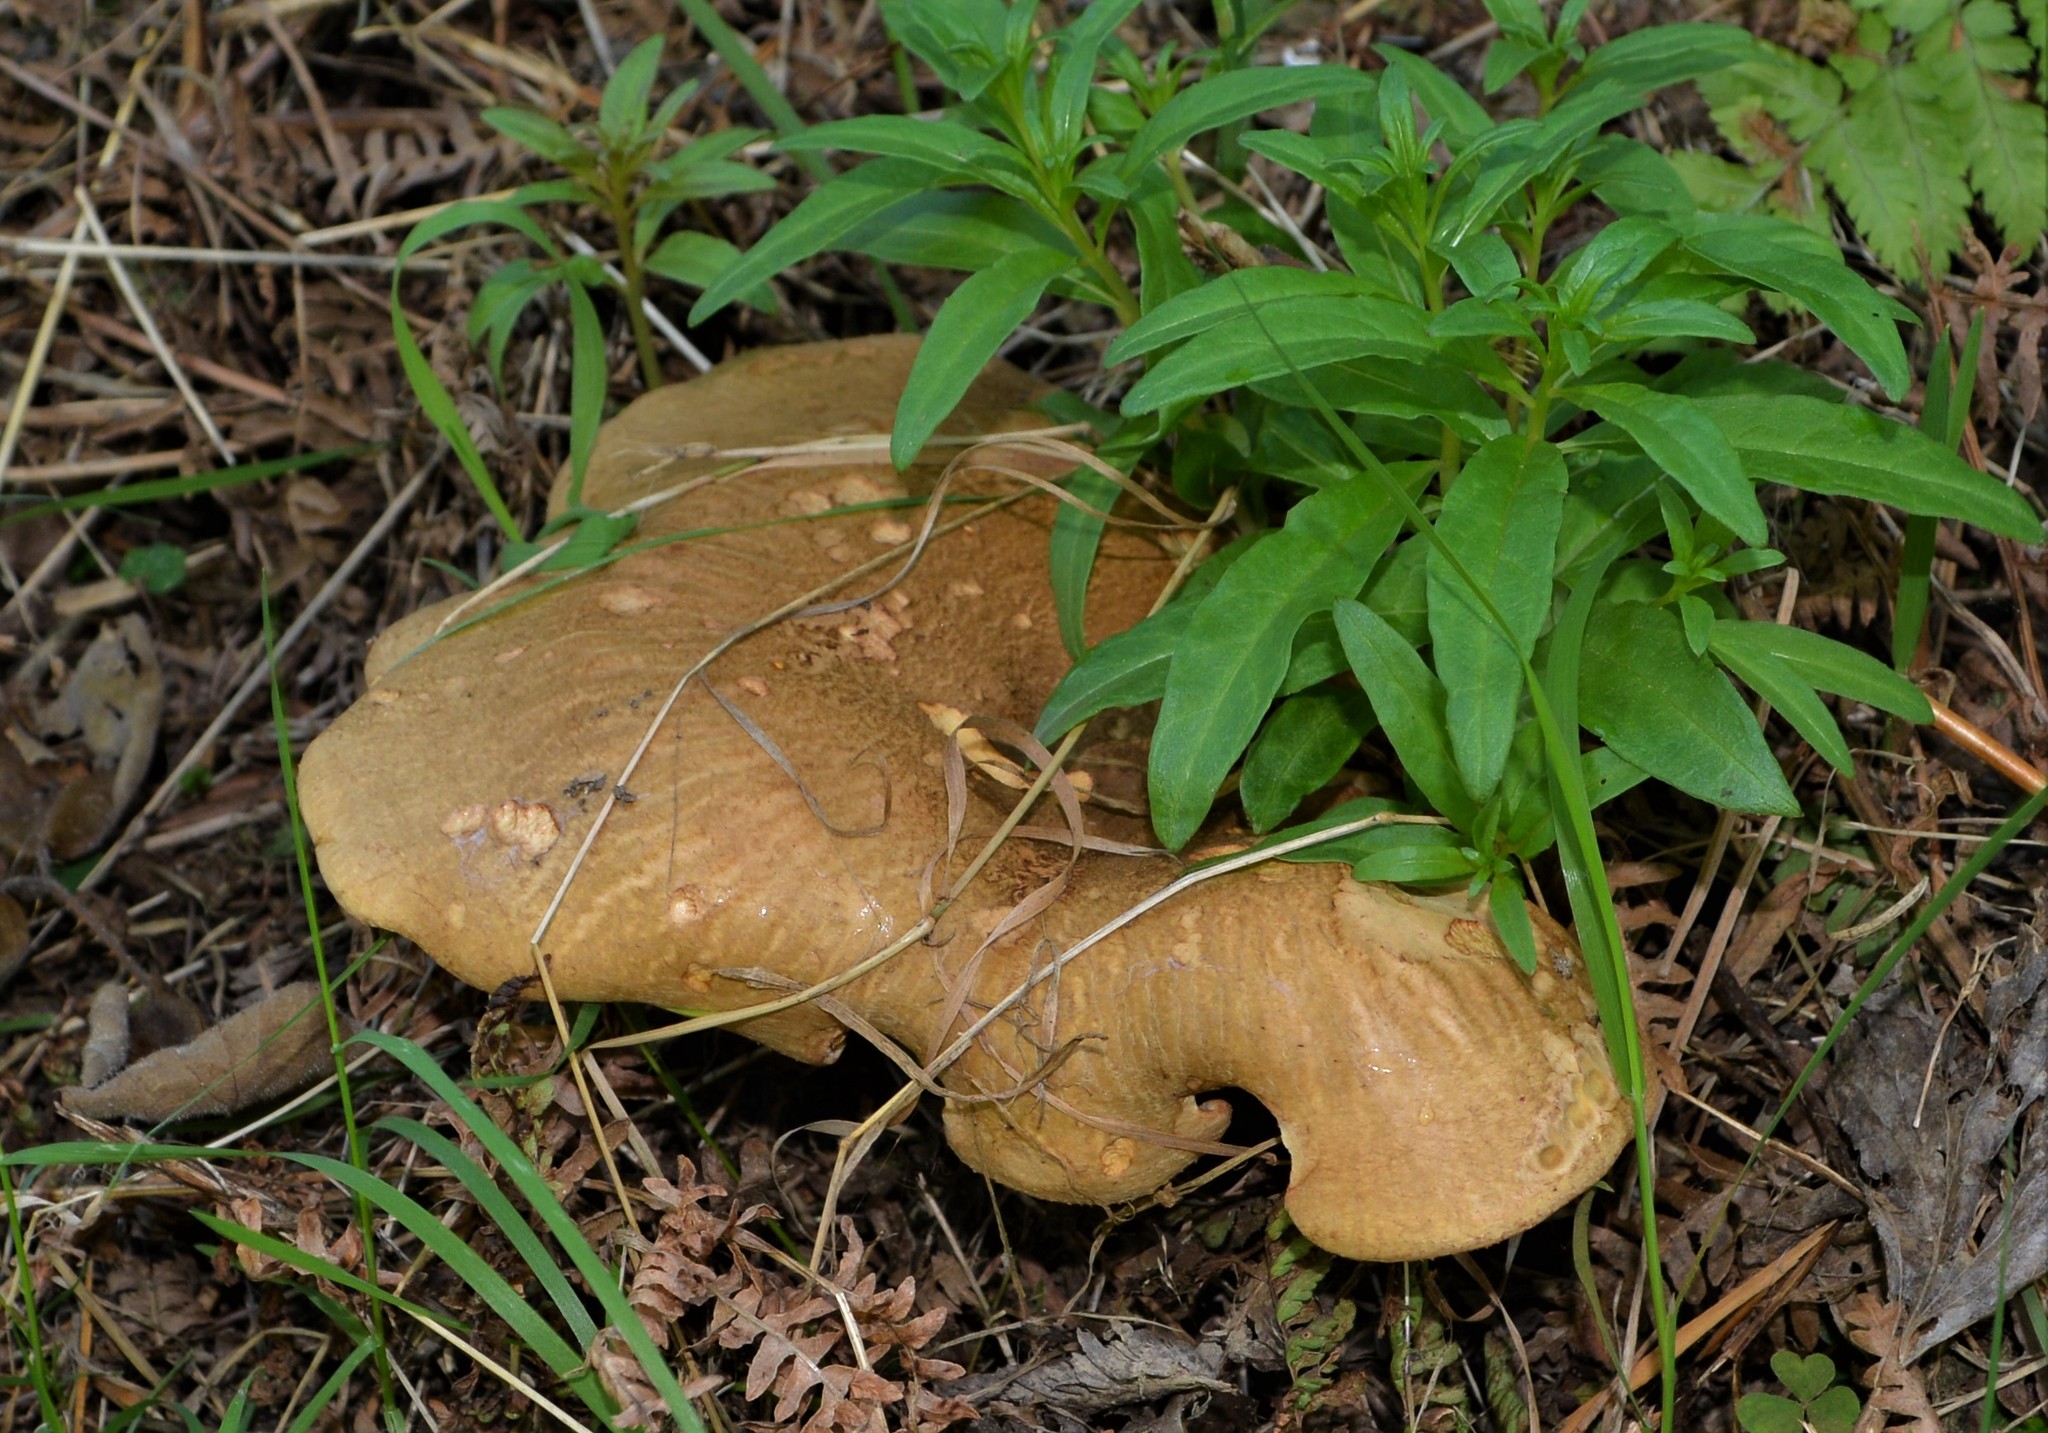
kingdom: Fungi
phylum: Basidiomycota
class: Agaricomycetes
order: Boletales
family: Paxillaceae
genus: Paxillus
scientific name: Paxillus involutus
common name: Brown roll rim
